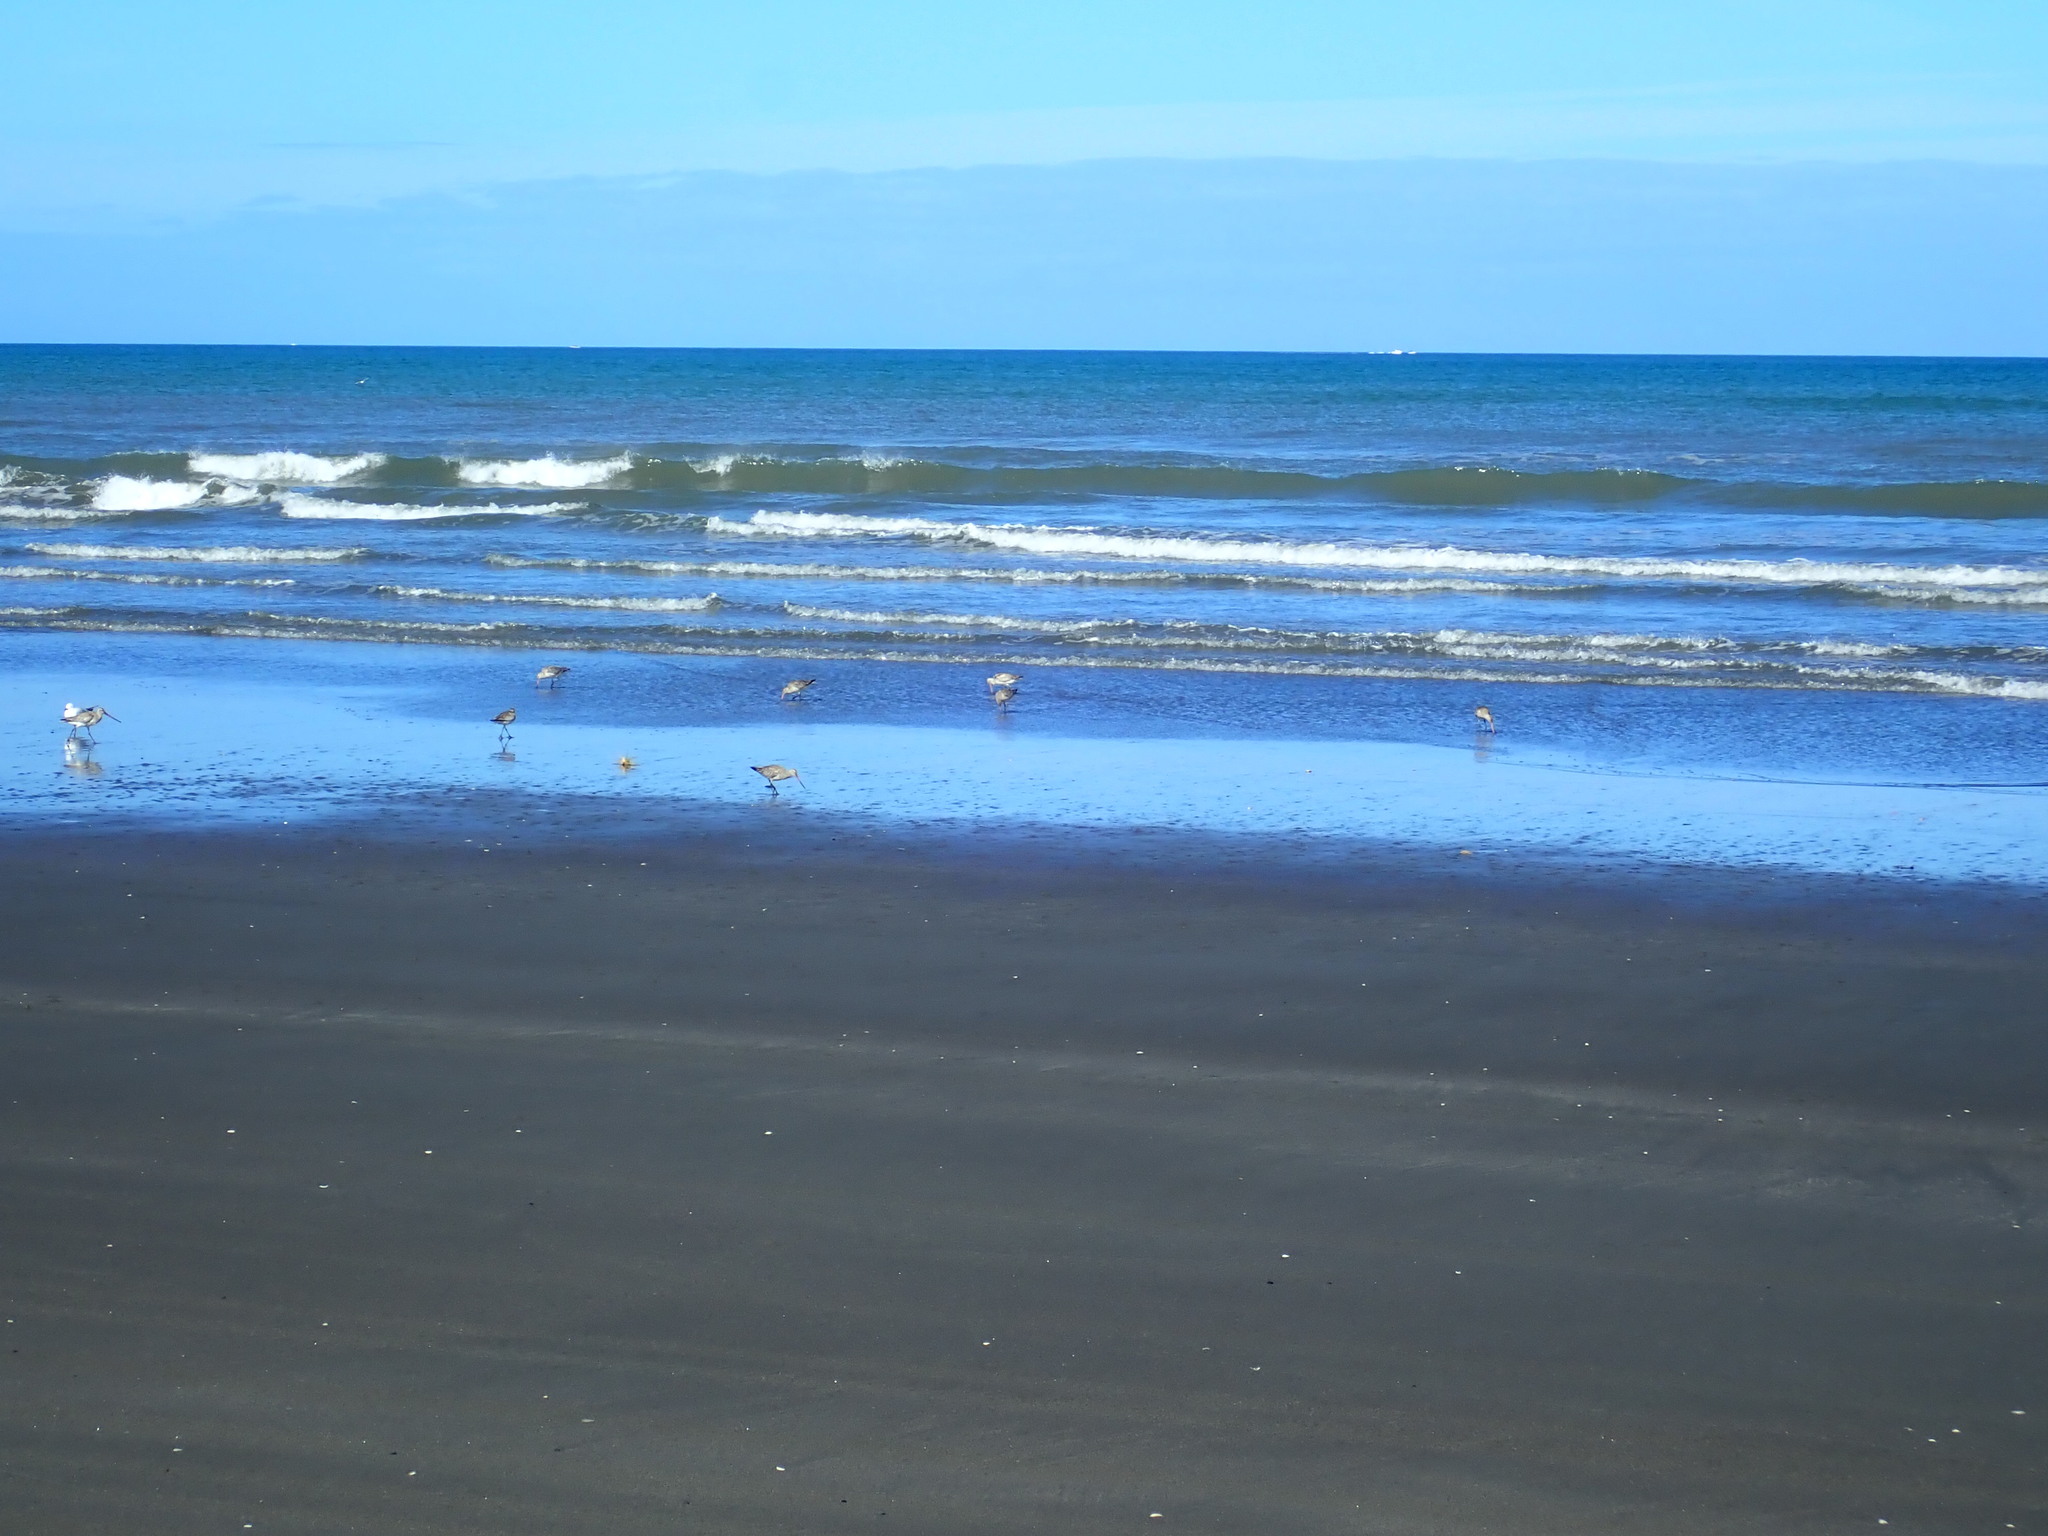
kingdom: Animalia
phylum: Chordata
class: Aves
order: Charadriiformes
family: Scolopacidae
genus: Limosa
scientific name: Limosa lapponica
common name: Bar-tailed godwit
